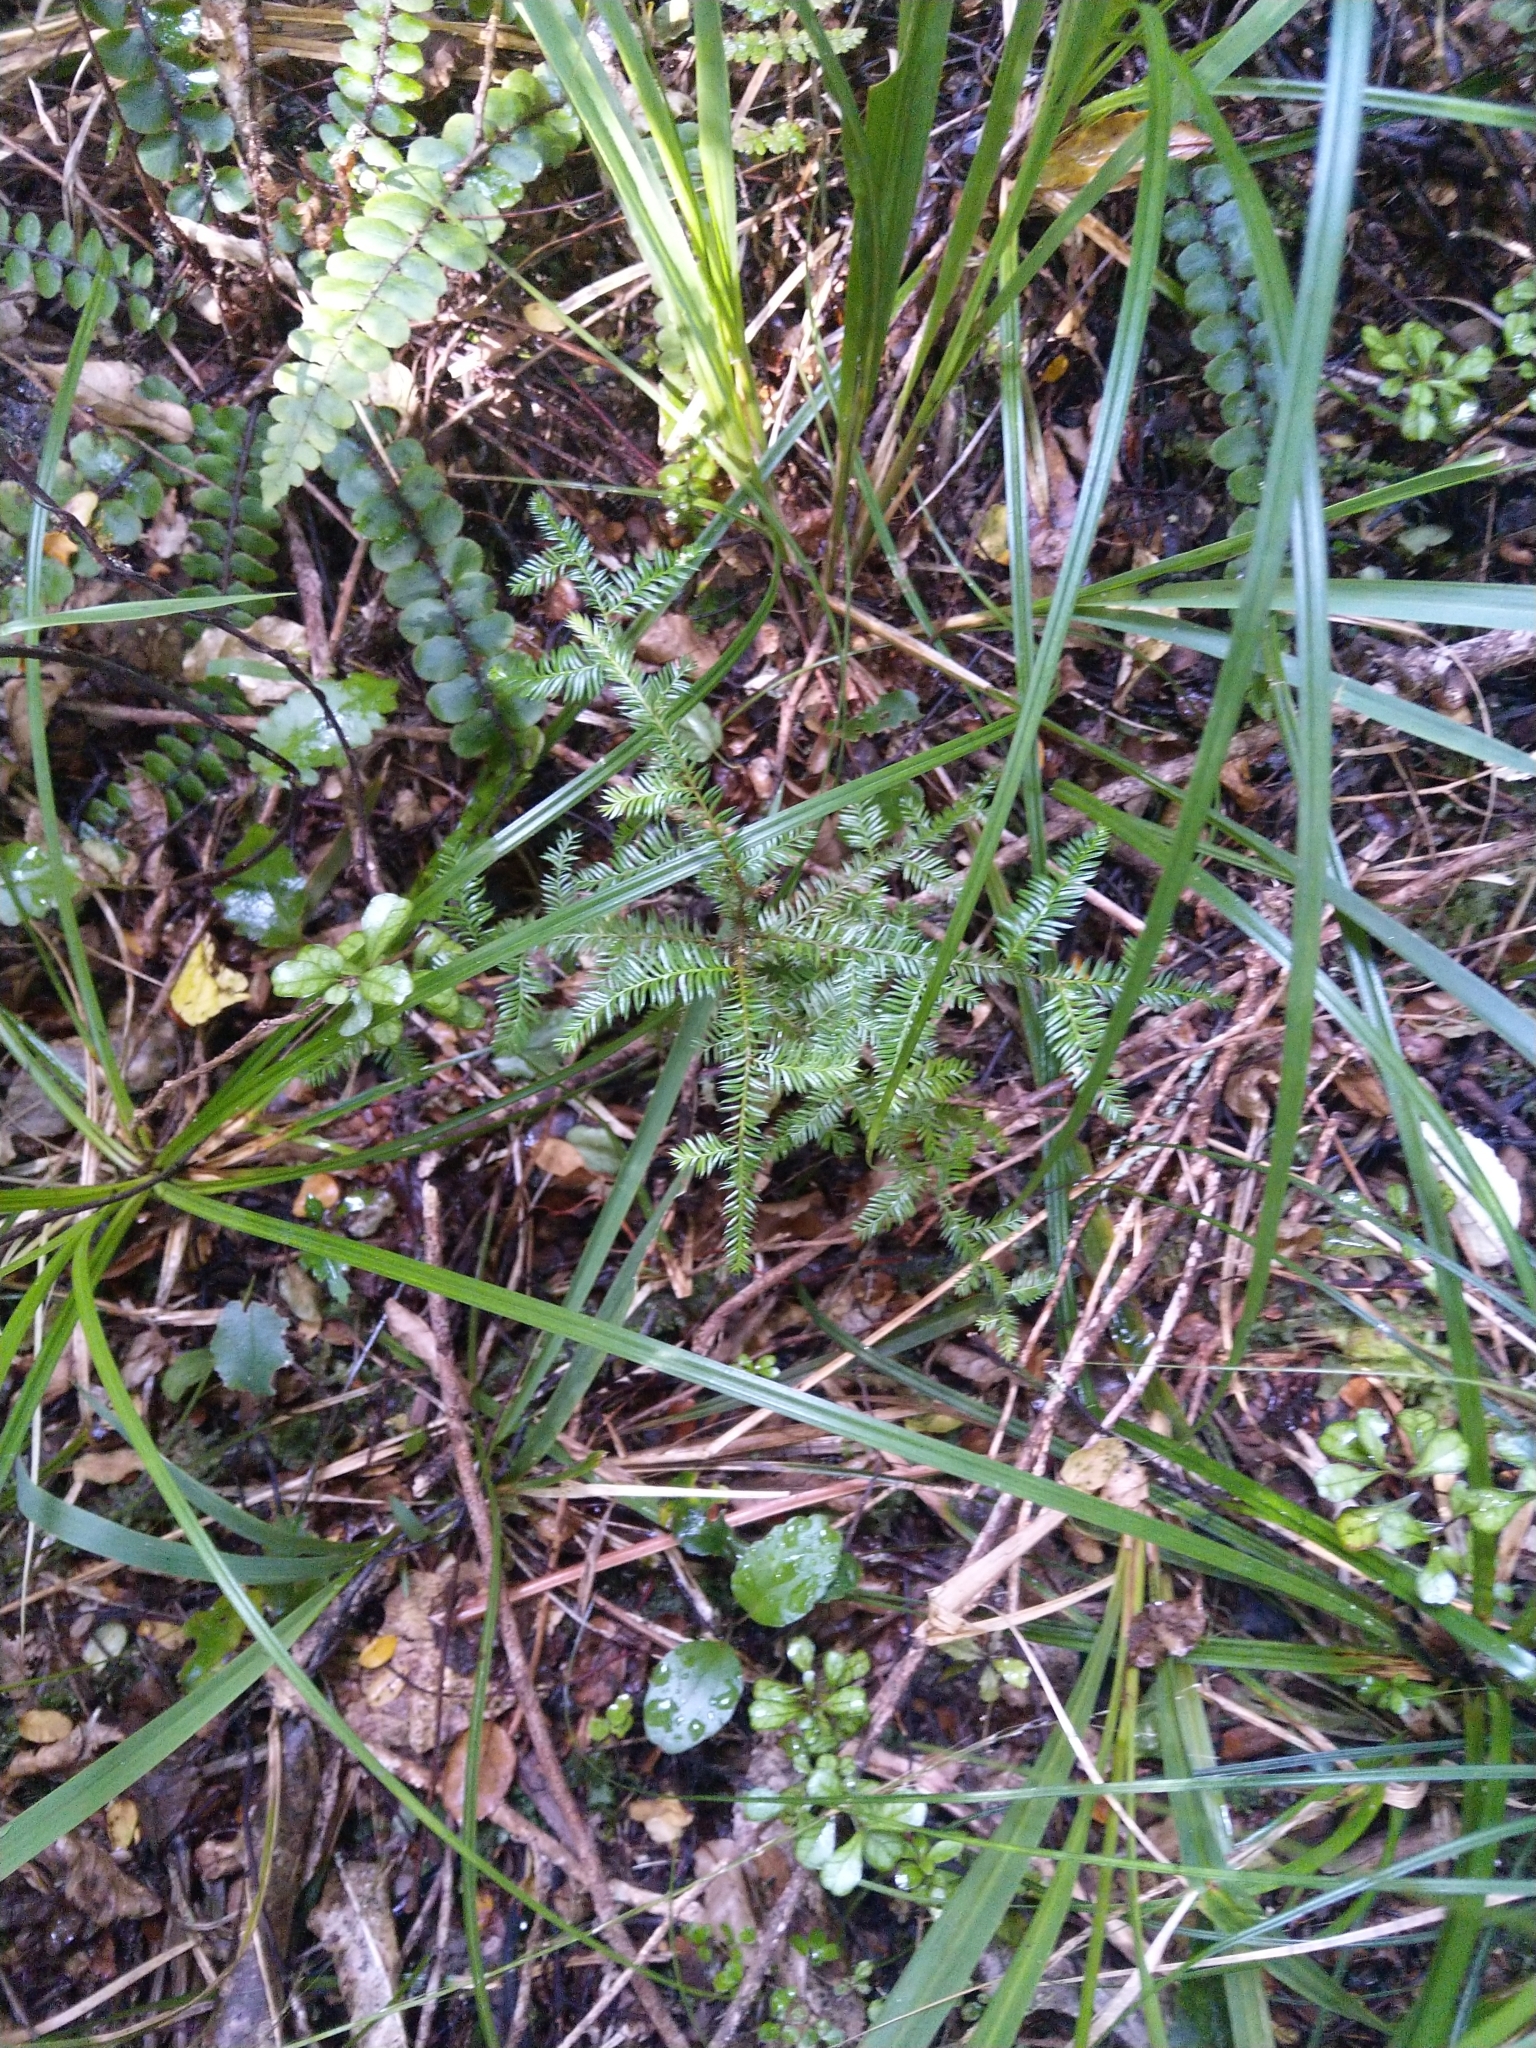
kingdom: Plantae
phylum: Tracheophyta
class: Pinopsida
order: Pinales
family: Podocarpaceae
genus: Dacrycarpus
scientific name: Dacrycarpus dacrydioides
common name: White pine
